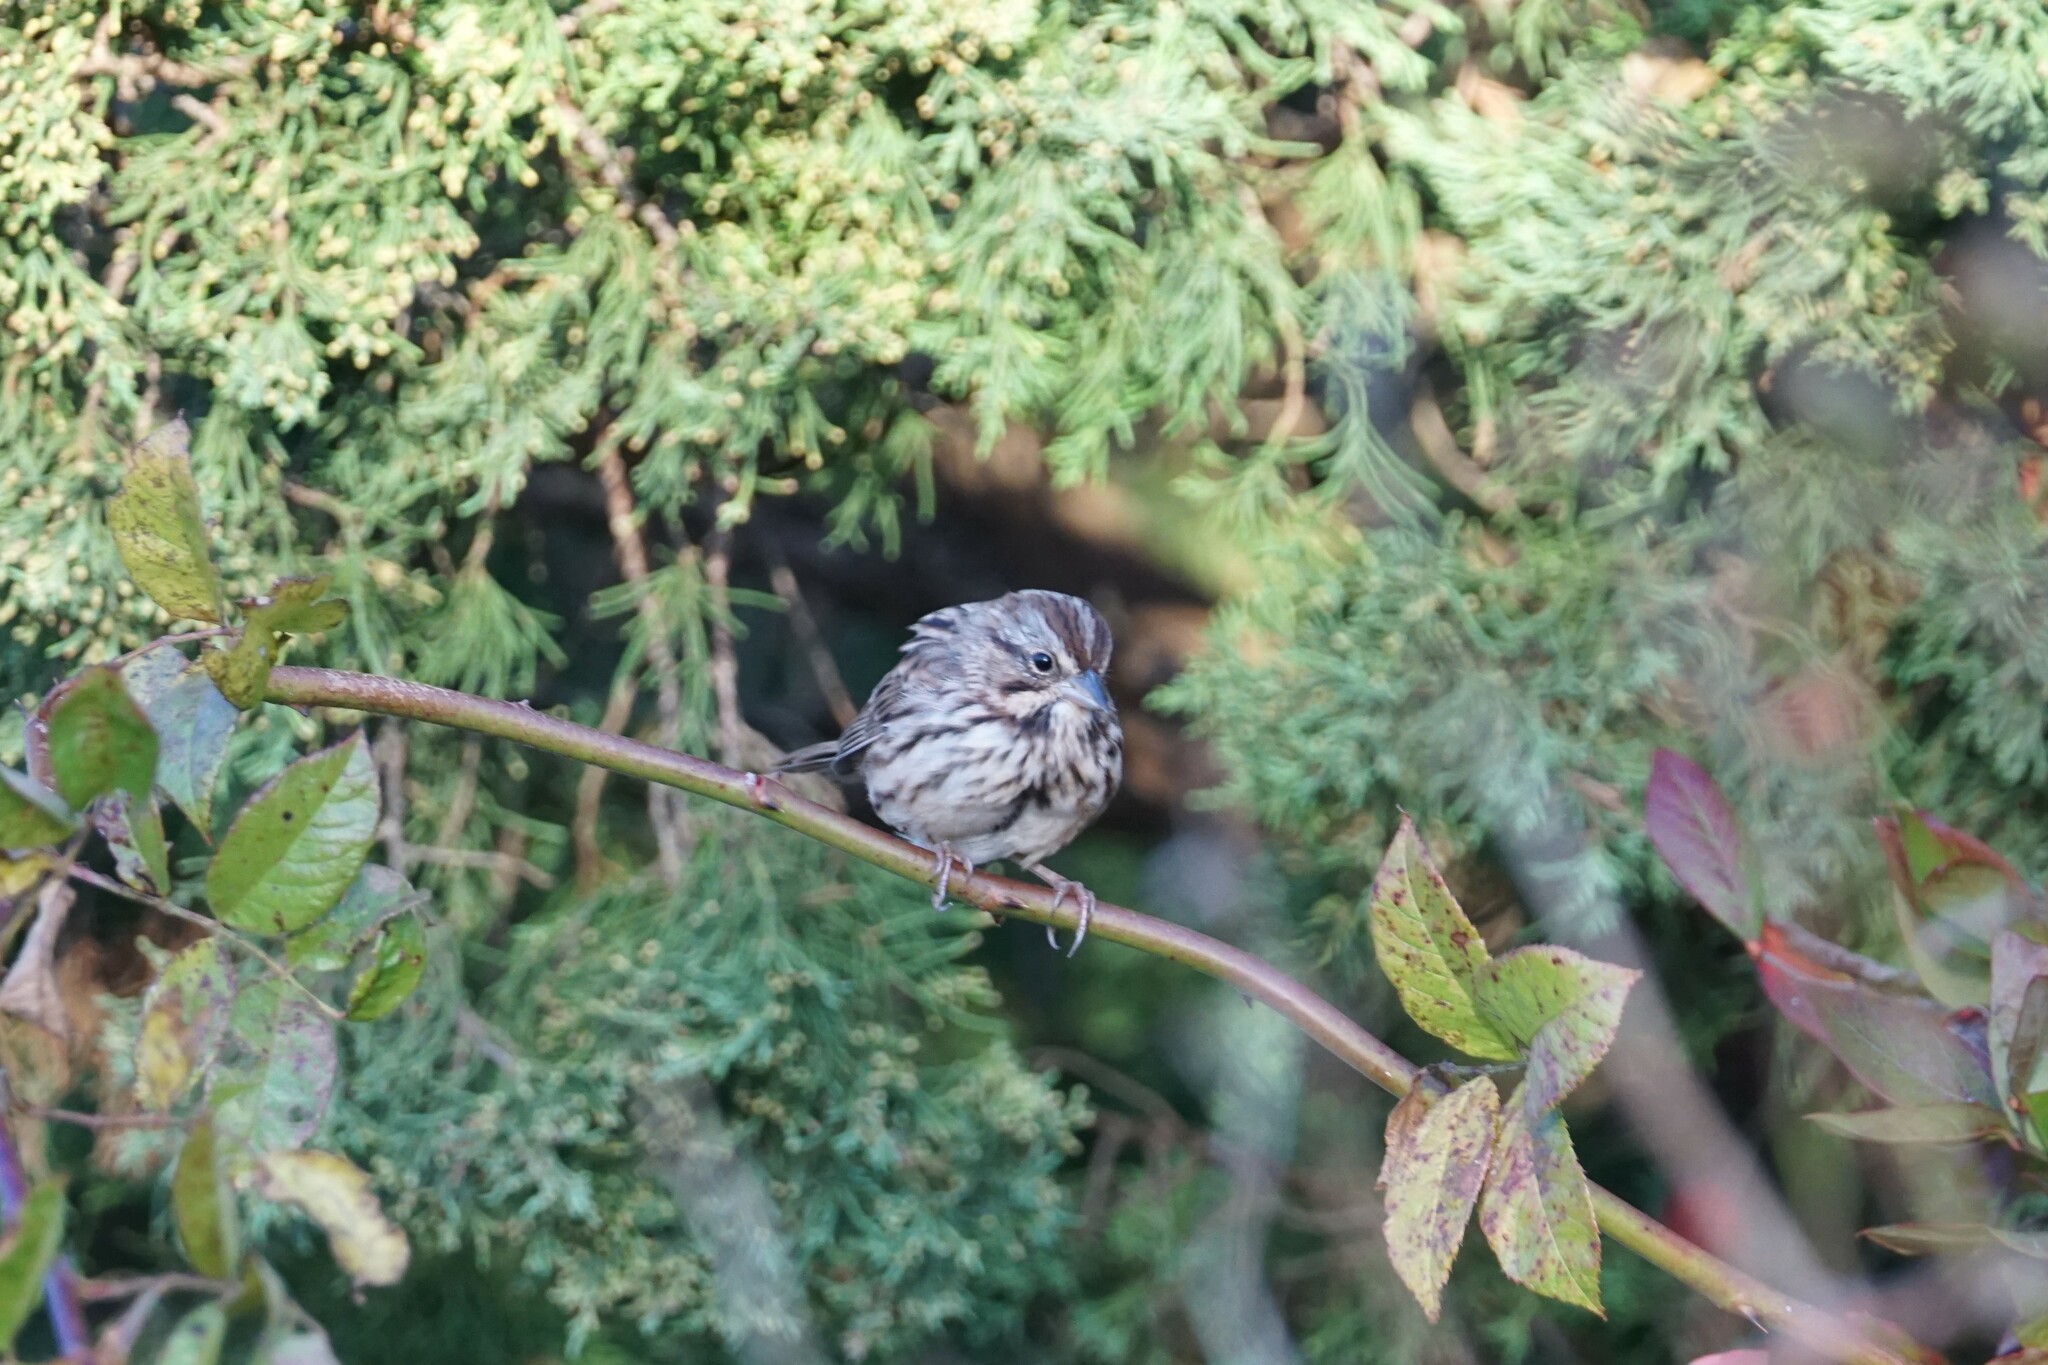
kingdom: Animalia
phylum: Chordata
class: Aves
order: Passeriformes
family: Passerellidae
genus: Melospiza
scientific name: Melospiza melodia
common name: Song sparrow
